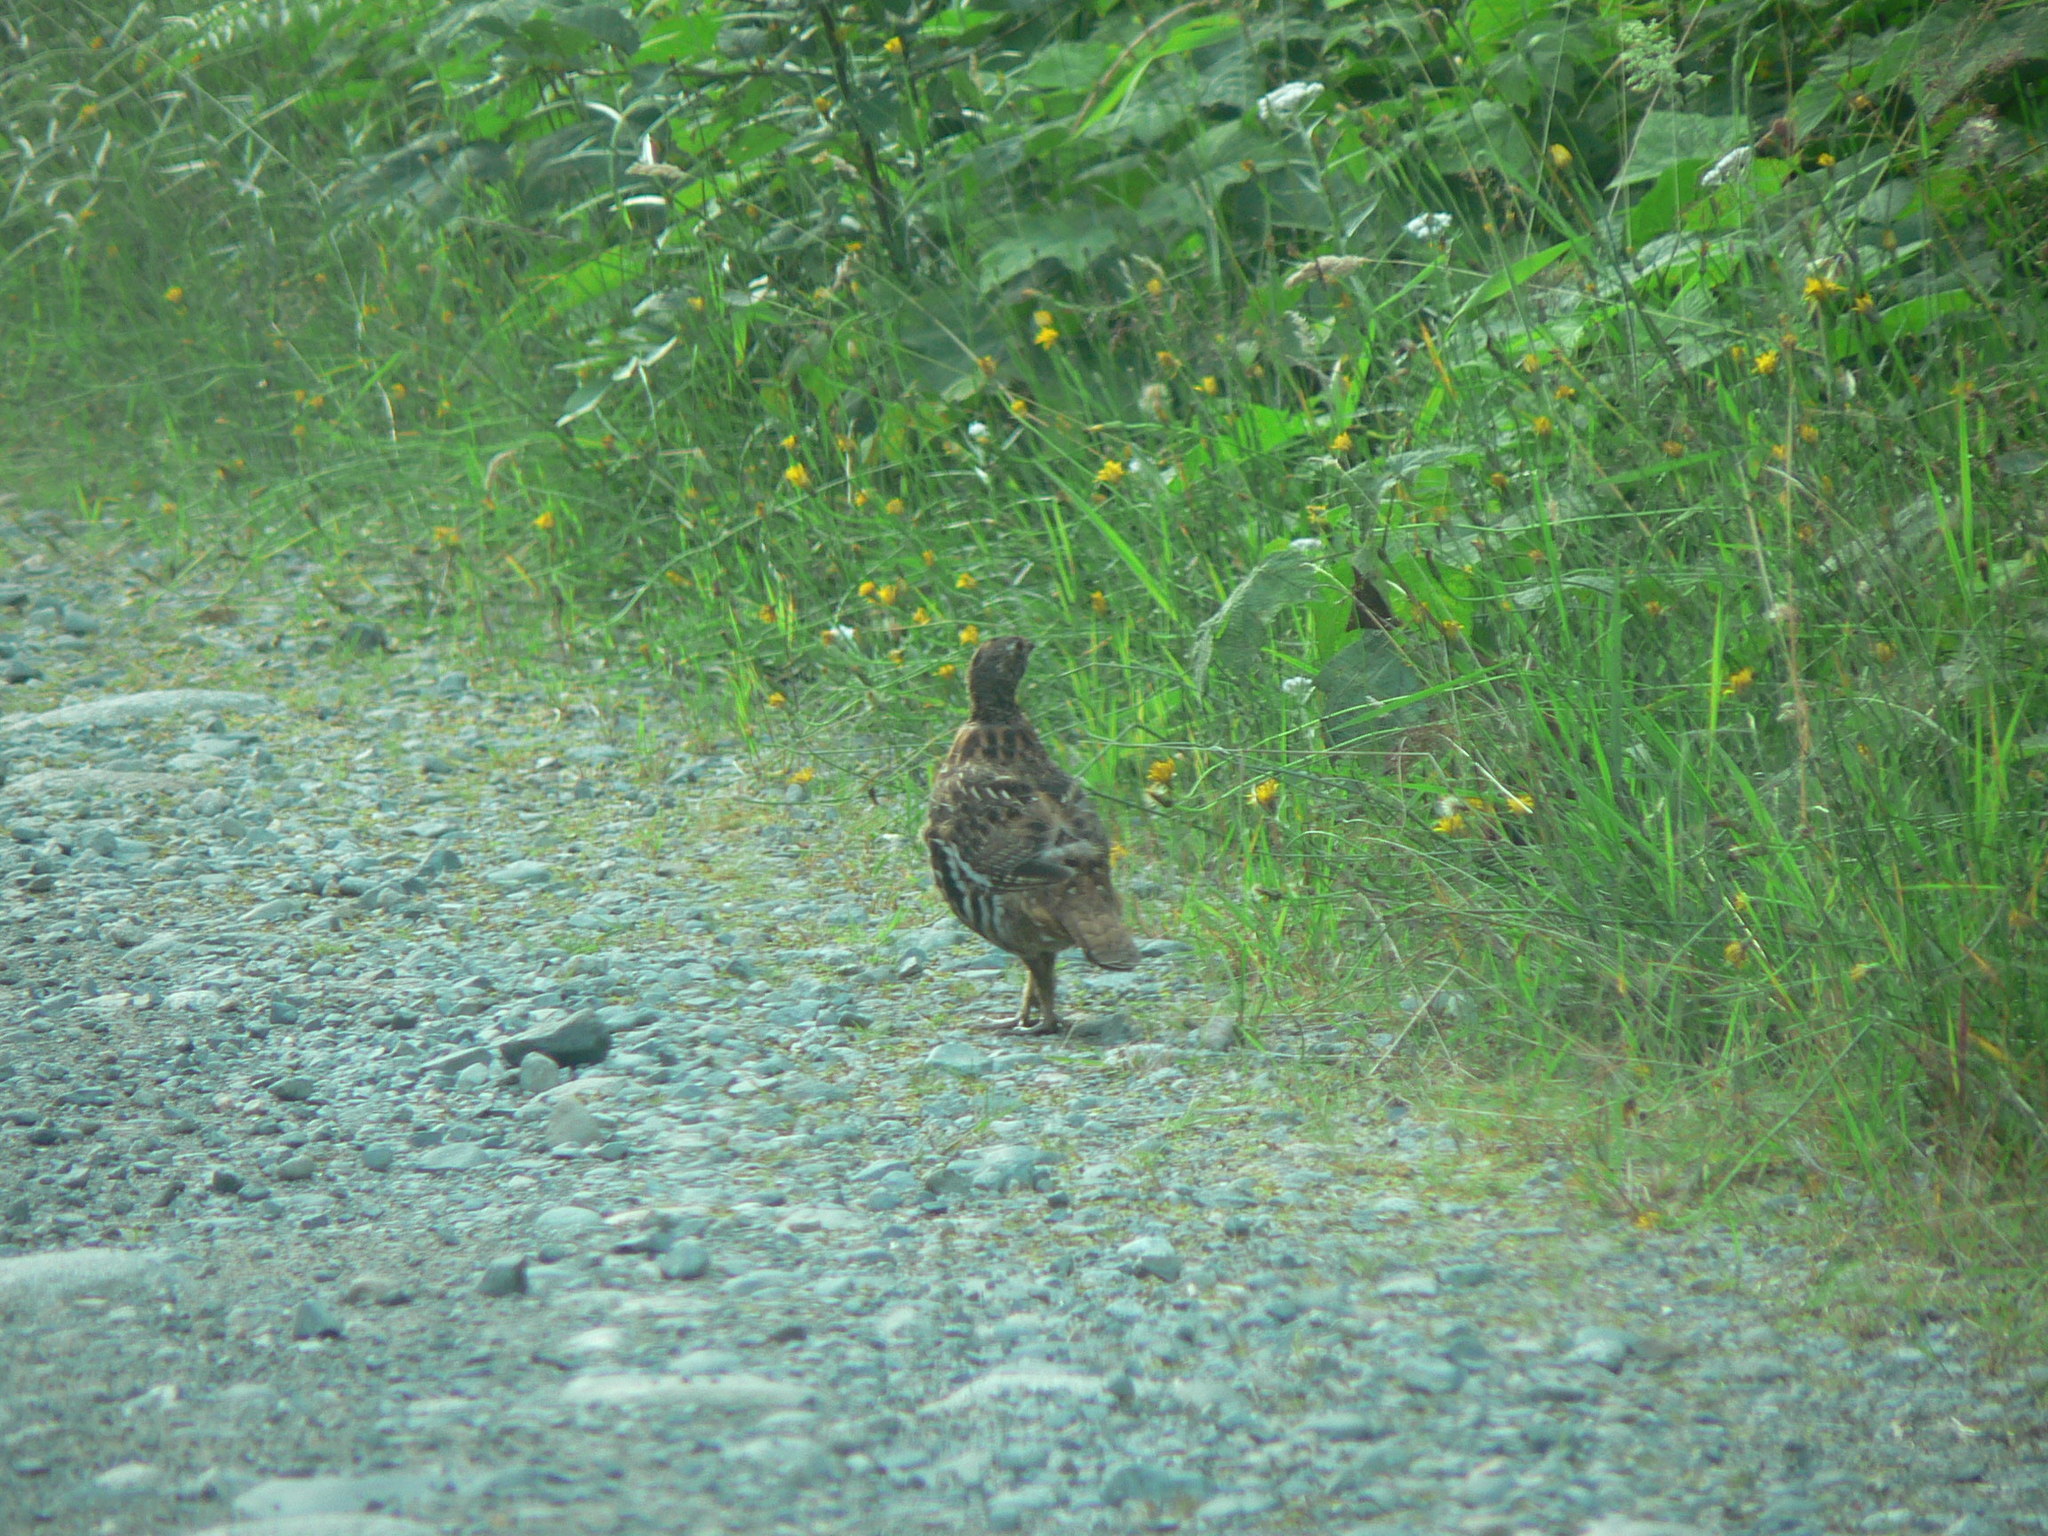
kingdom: Animalia
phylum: Chordata
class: Aves
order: Galliformes
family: Phasianidae
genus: Bonasa
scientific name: Bonasa umbellus
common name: Ruffed grouse
